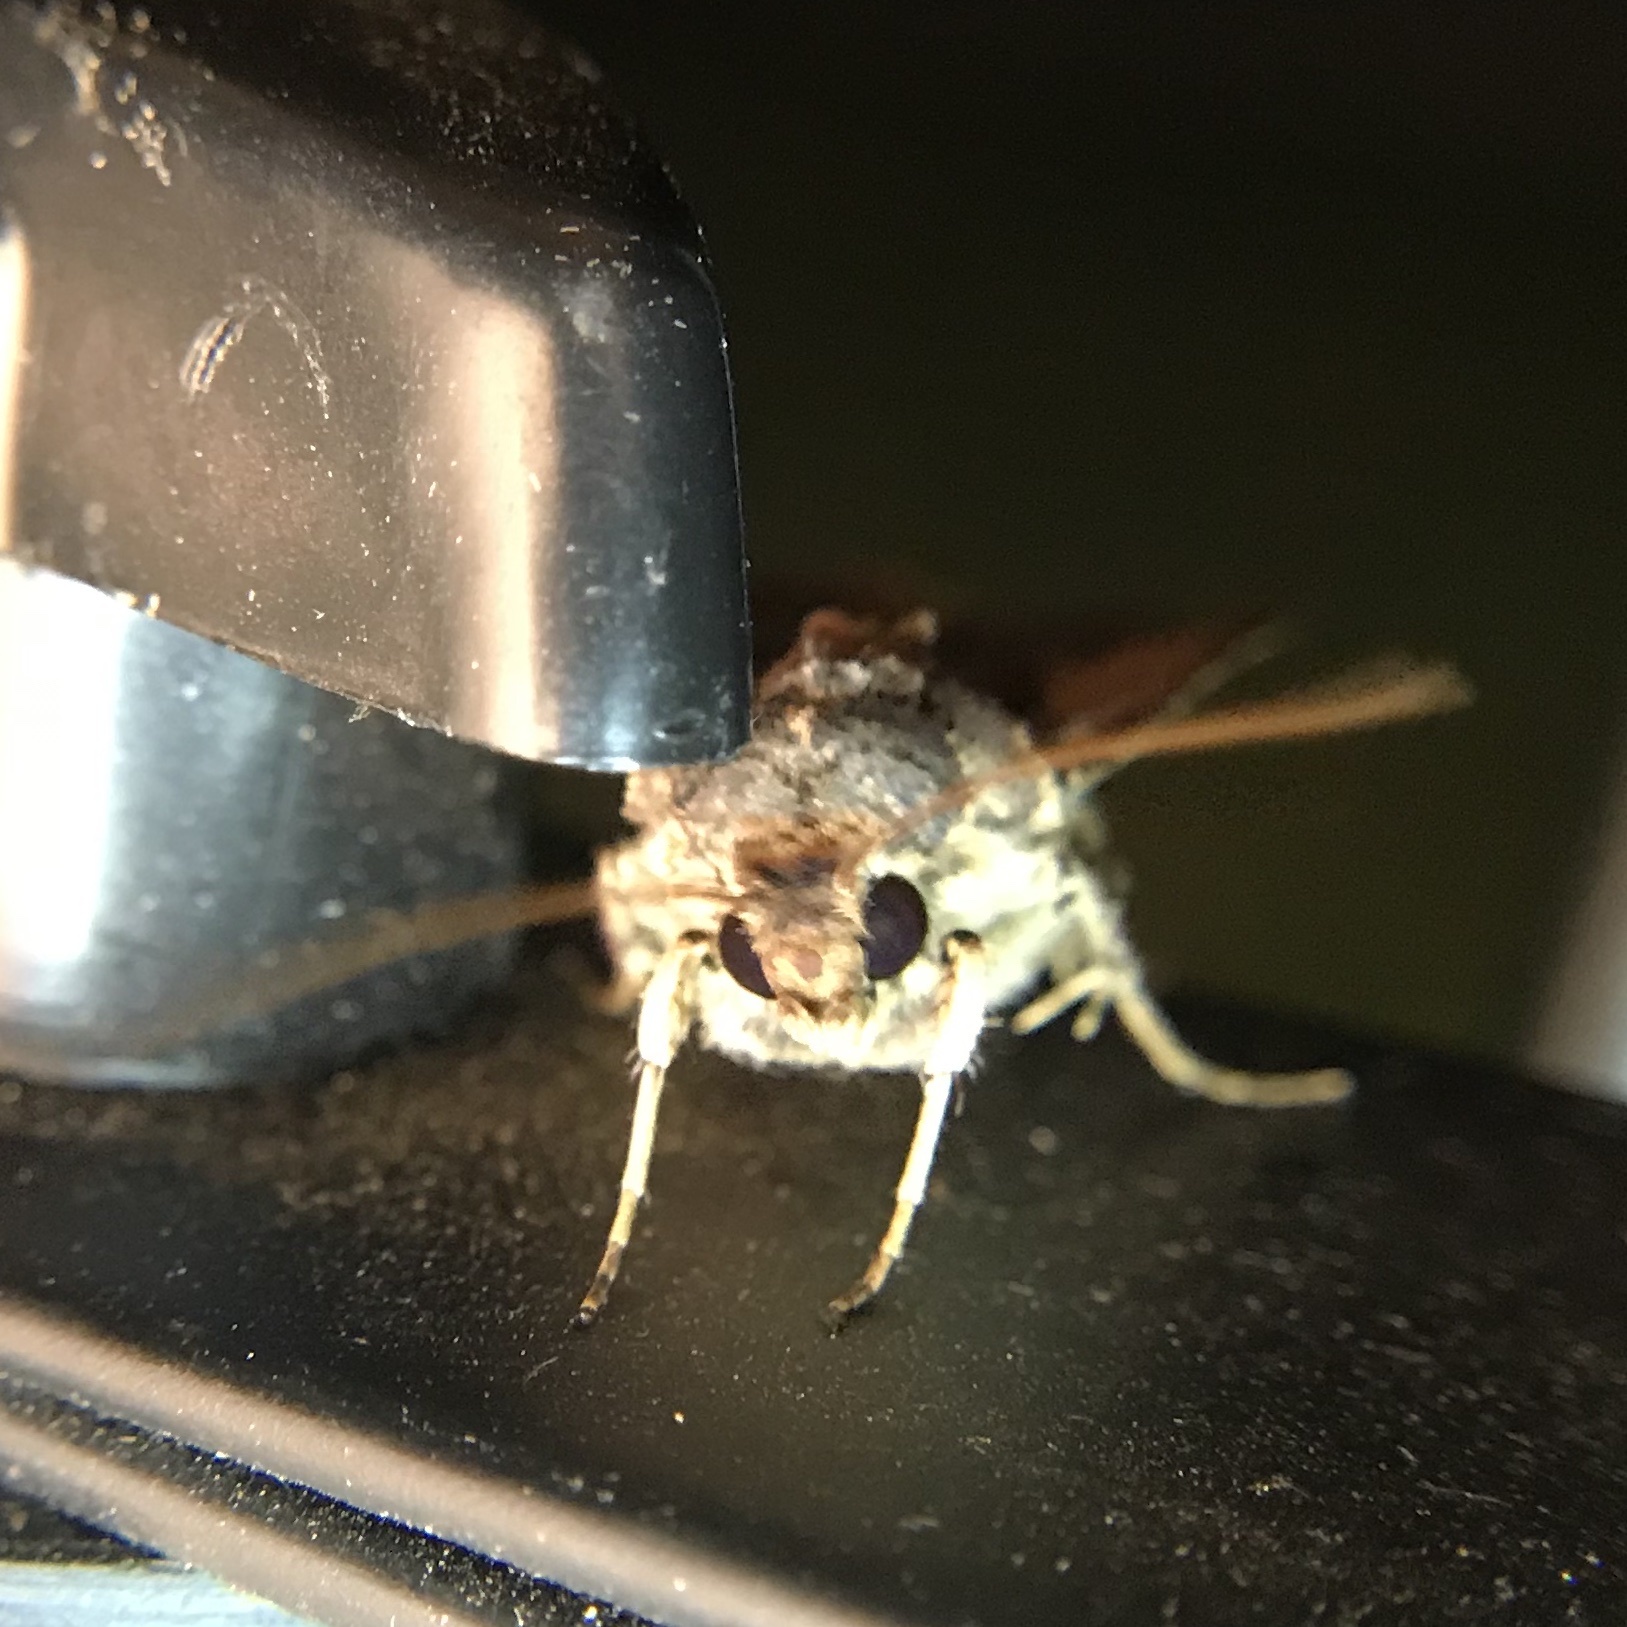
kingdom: Animalia
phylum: Arthropoda
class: Insecta
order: Lepidoptera
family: Noctuidae
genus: Feltia
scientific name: Feltia subterranea
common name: Granulate cutworm
